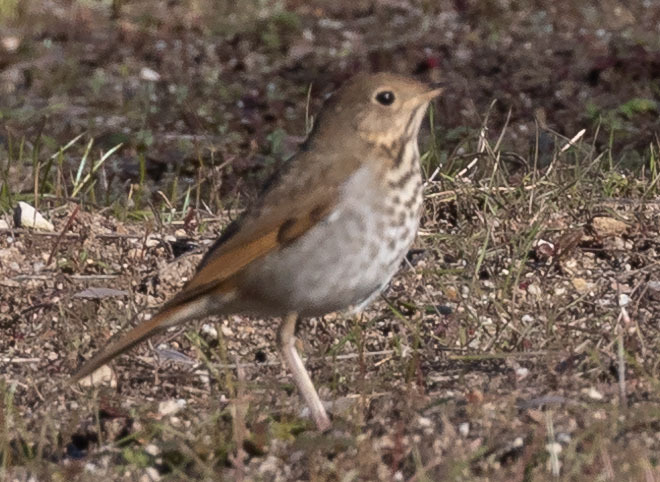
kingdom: Animalia
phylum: Chordata
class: Aves
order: Passeriformes
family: Turdidae
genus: Catharus
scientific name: Catharus guttatus
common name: Hermit thrush
